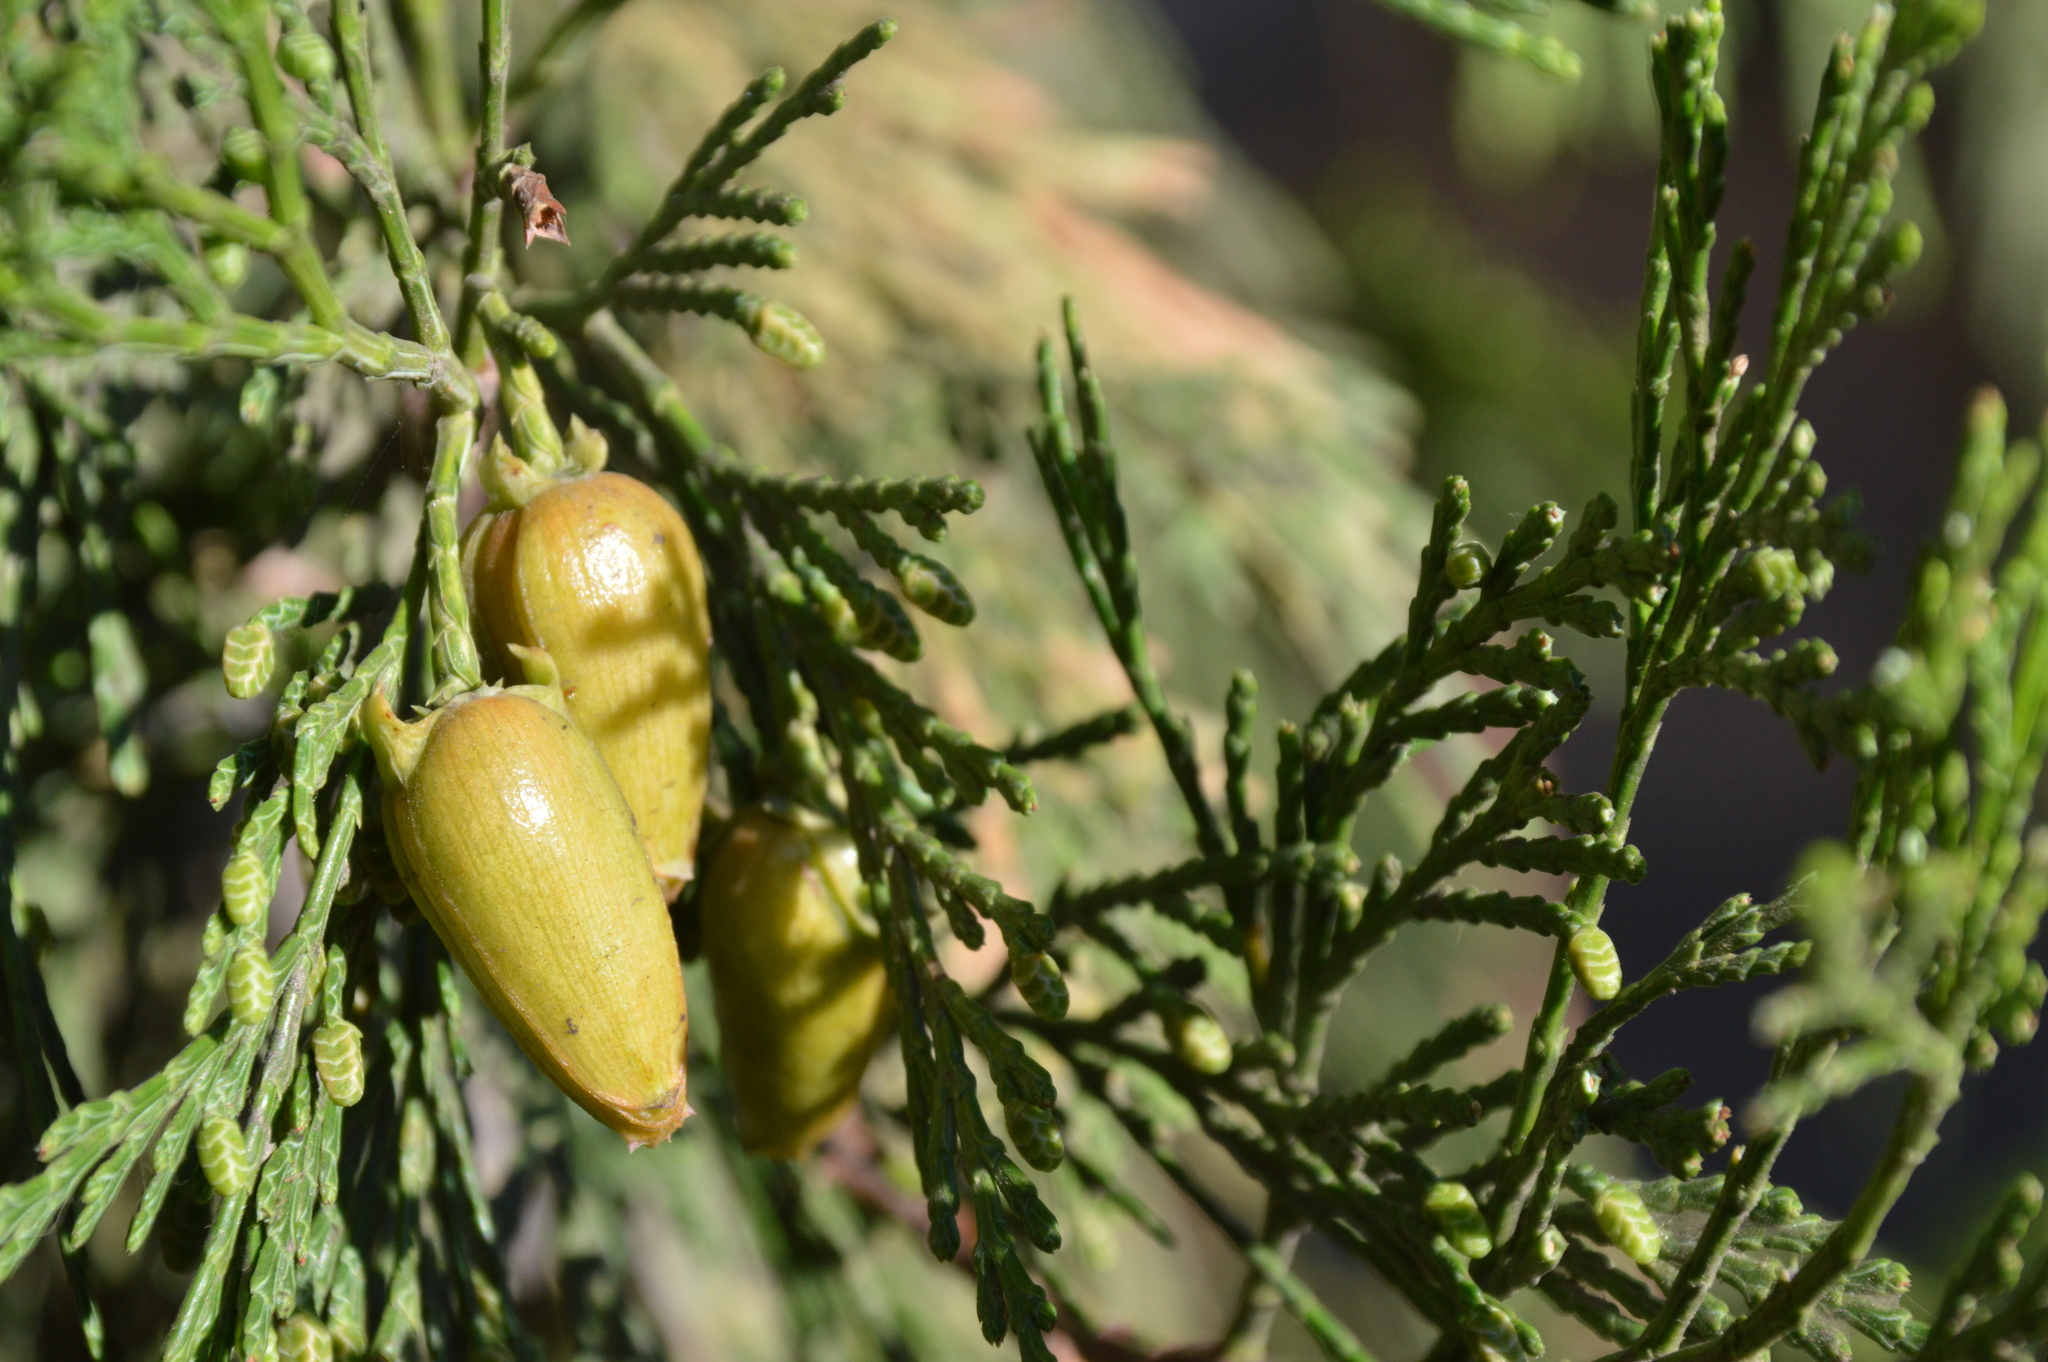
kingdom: Plantae
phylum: Tracheophyta
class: Pinopsida
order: Pinales
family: Cupressaceae
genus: Calocedrus
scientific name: Calocedrus decurrens
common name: Californian incense-cedar
